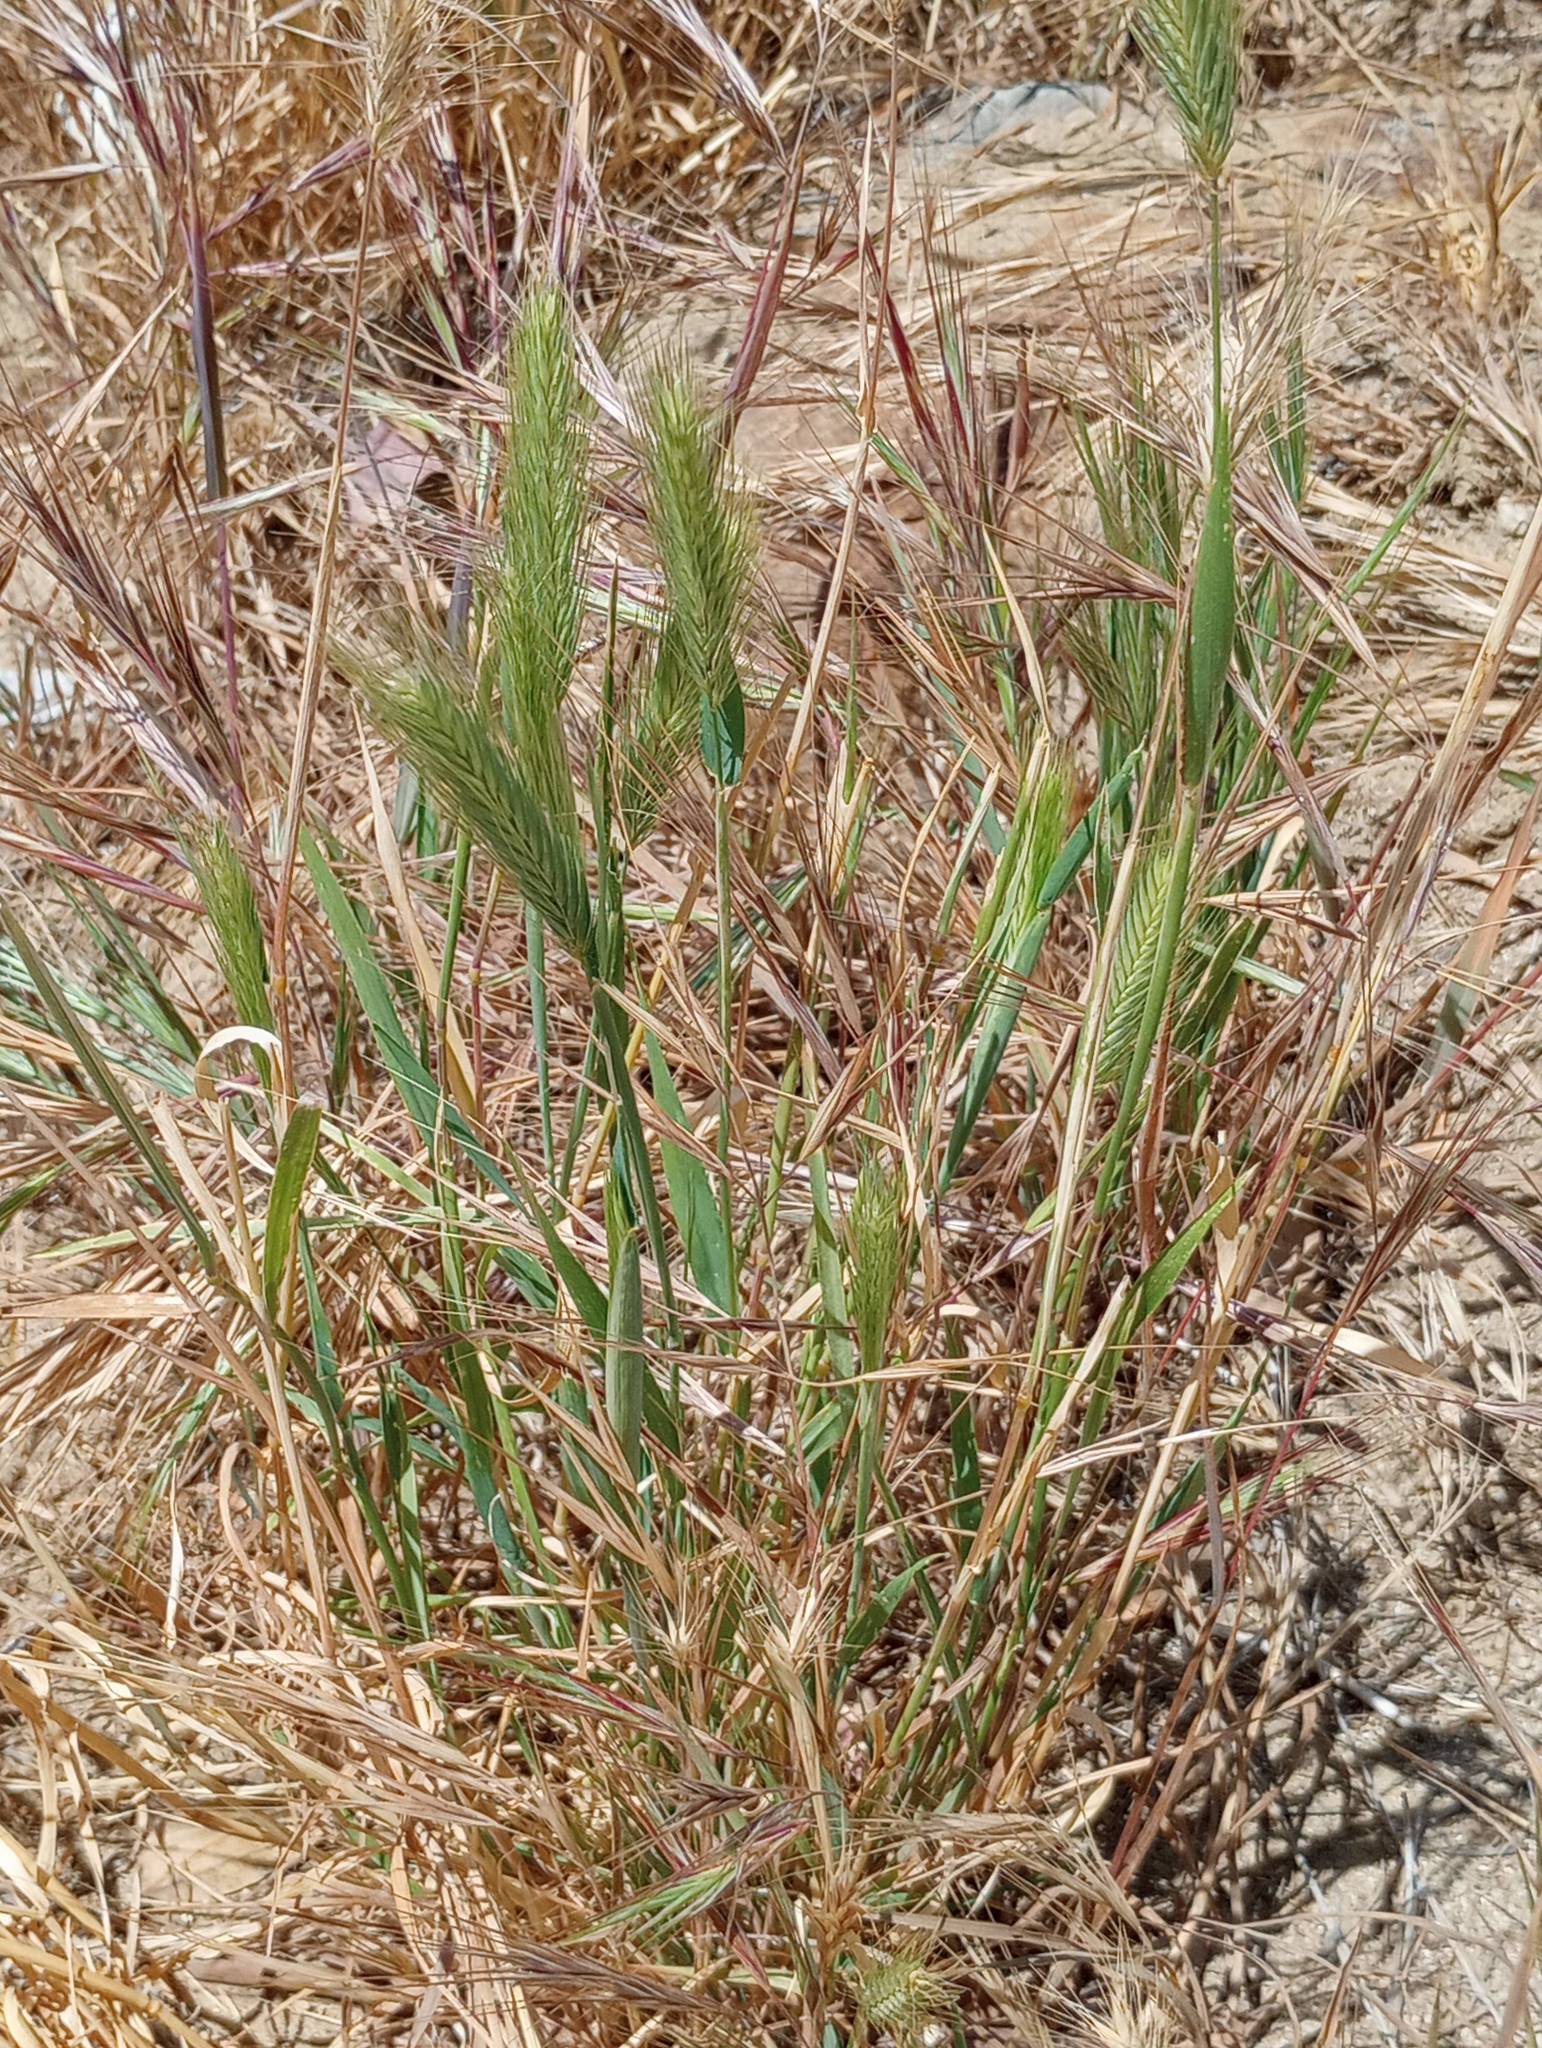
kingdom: Plantae
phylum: Tracheophyta
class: Liliopsida
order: Poales
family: Poaceae
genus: Hordeum
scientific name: Hordeum murinum
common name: Wall barley
